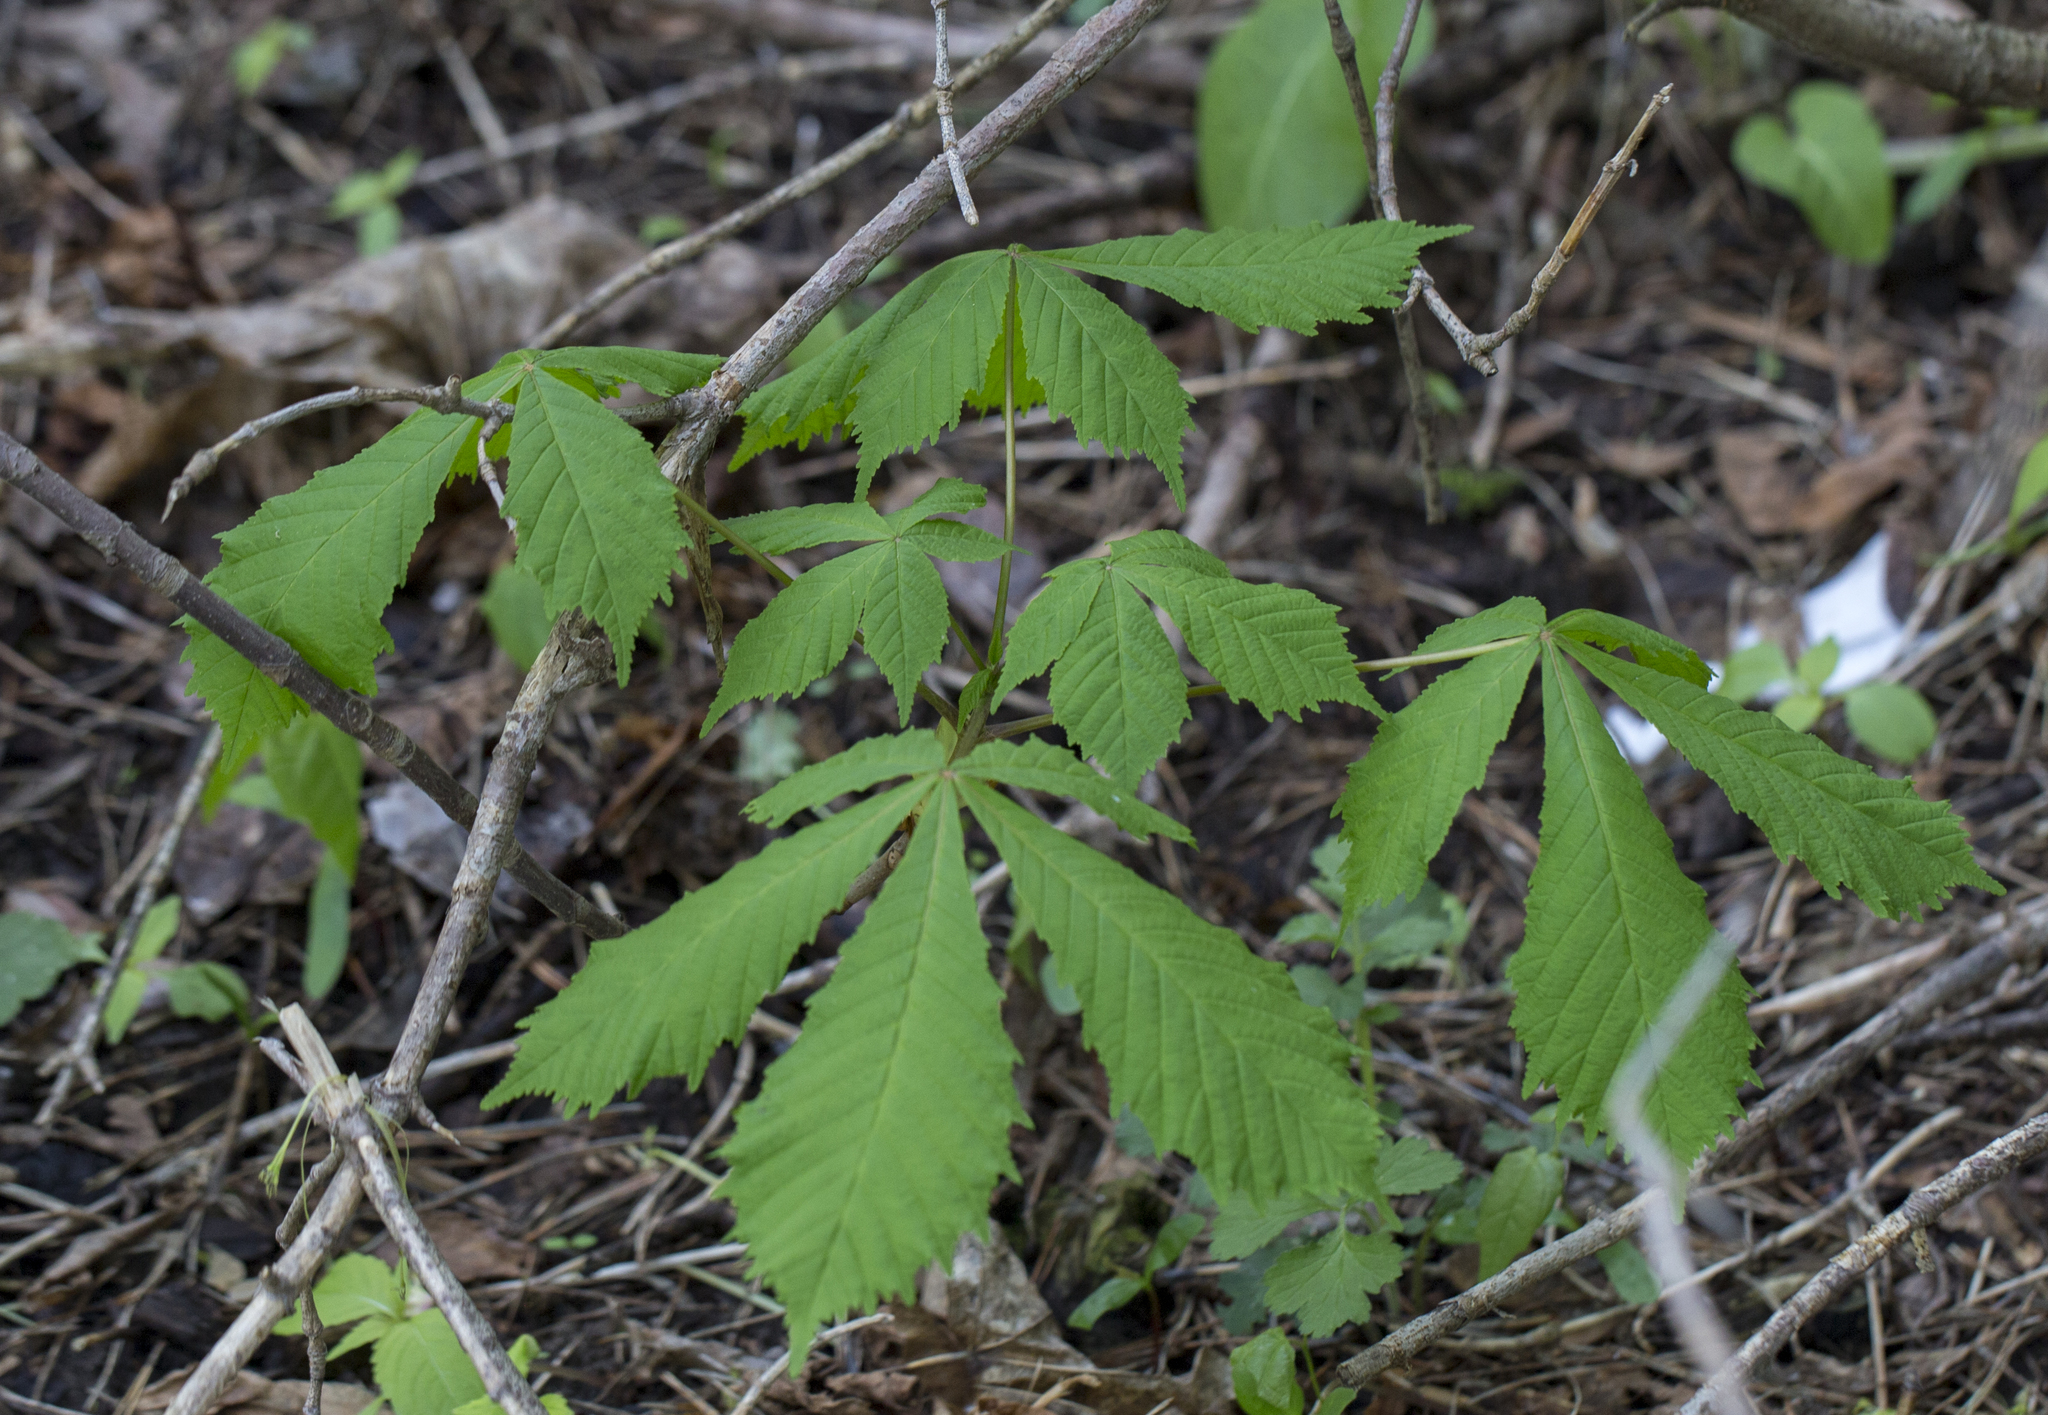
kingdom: Plantae
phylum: Tracheophyta
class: Magnoliopsida
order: Sapindales
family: Sapindaceae
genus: Aesculus
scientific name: Aesculus hippocastanum
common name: Horse-chestnut
